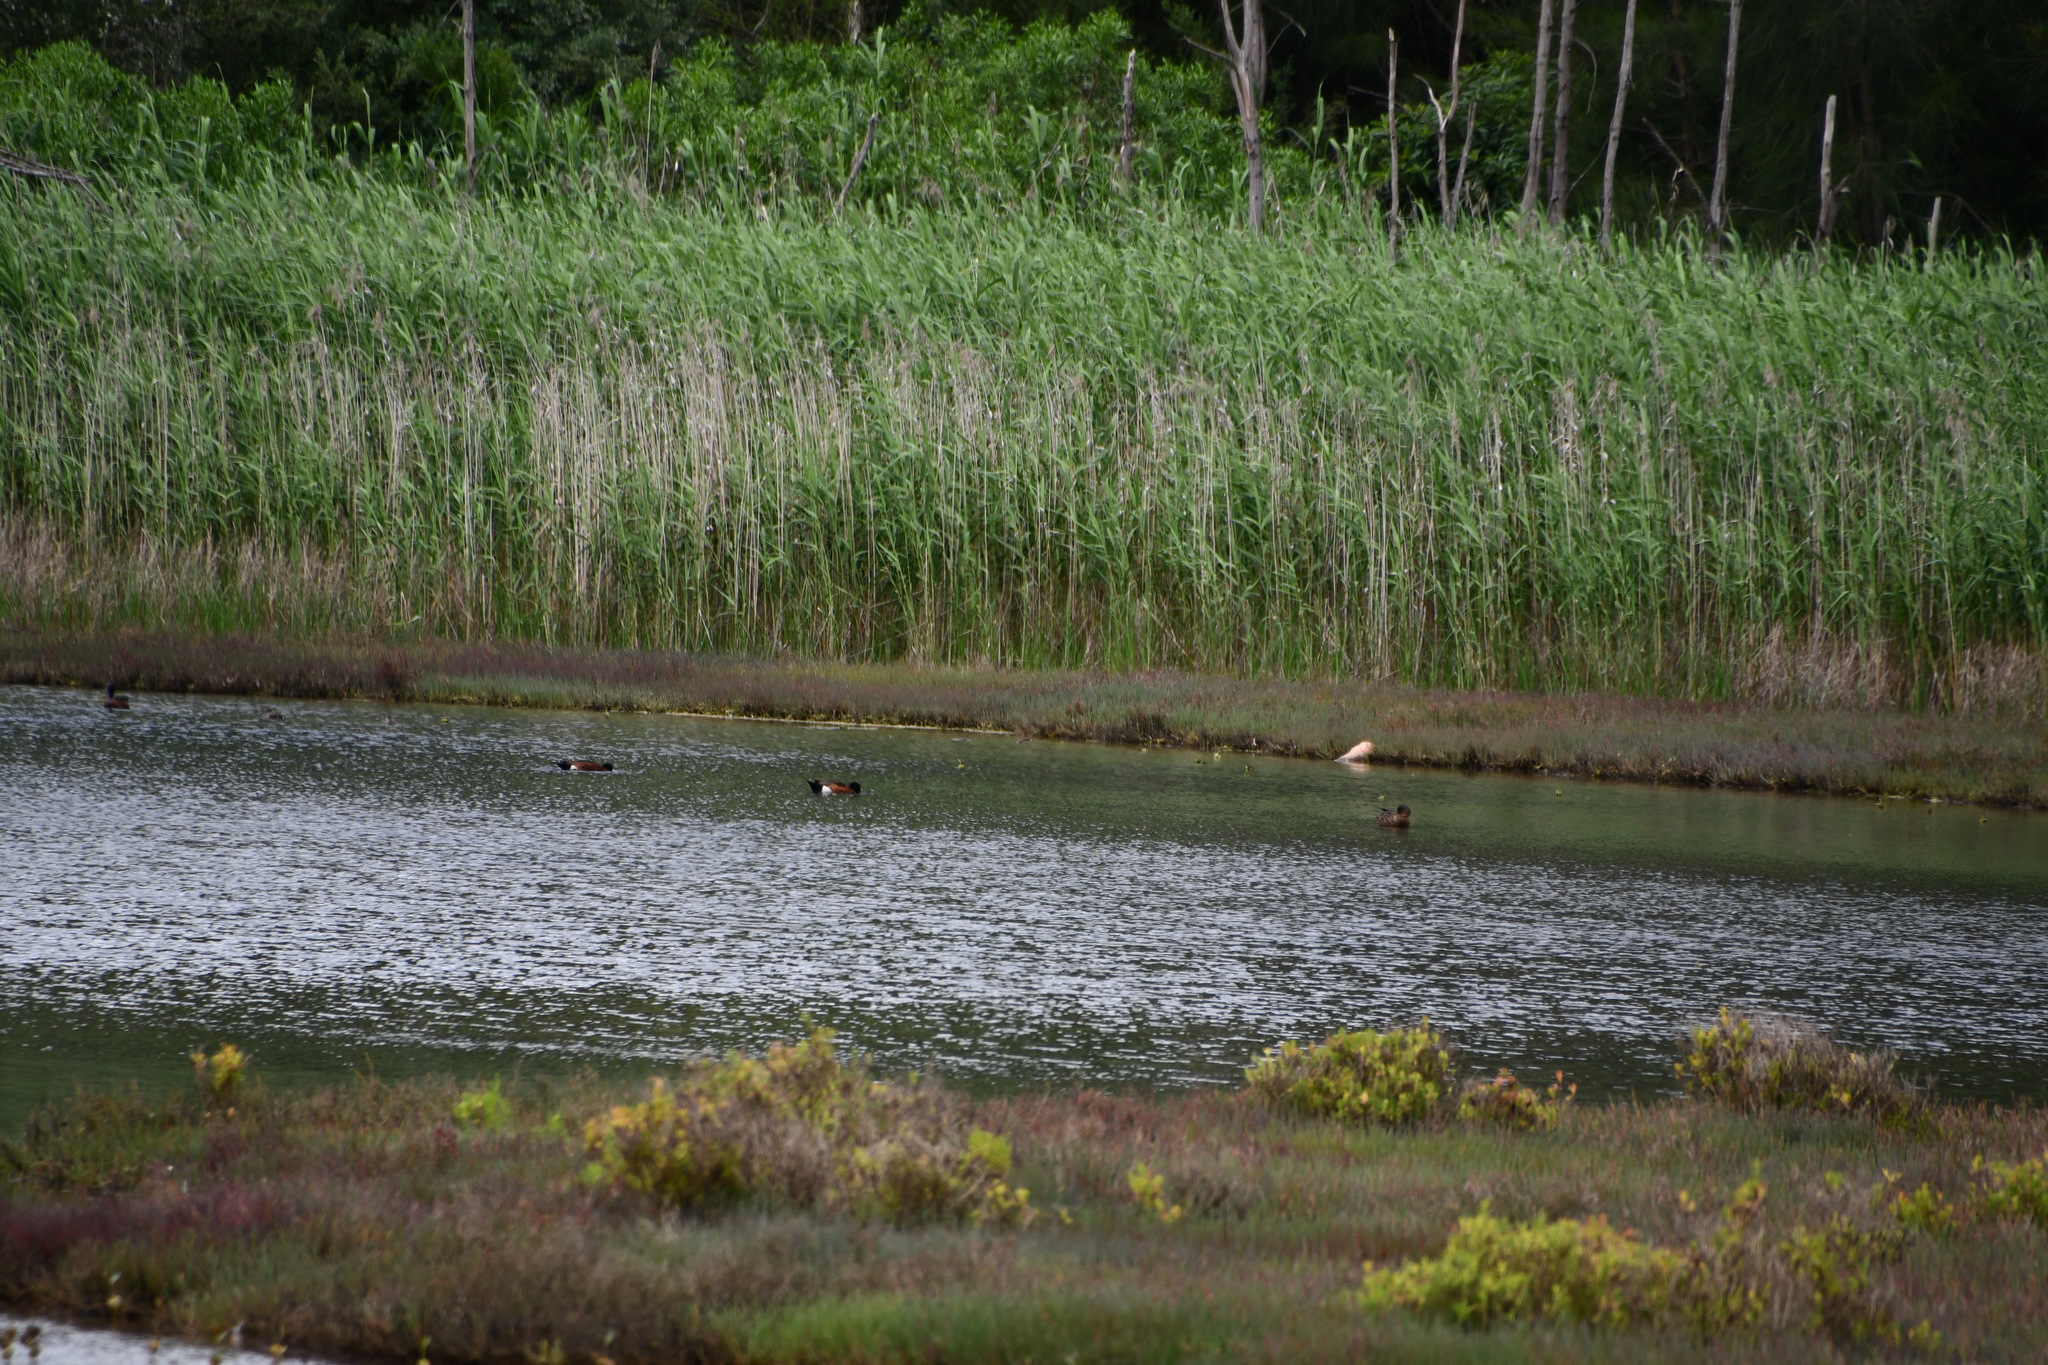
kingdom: Animalia
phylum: Chordata
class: Aves
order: Anseriformes
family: Anatidae
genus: Anas
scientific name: Anas castanea
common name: Chestnut teal
